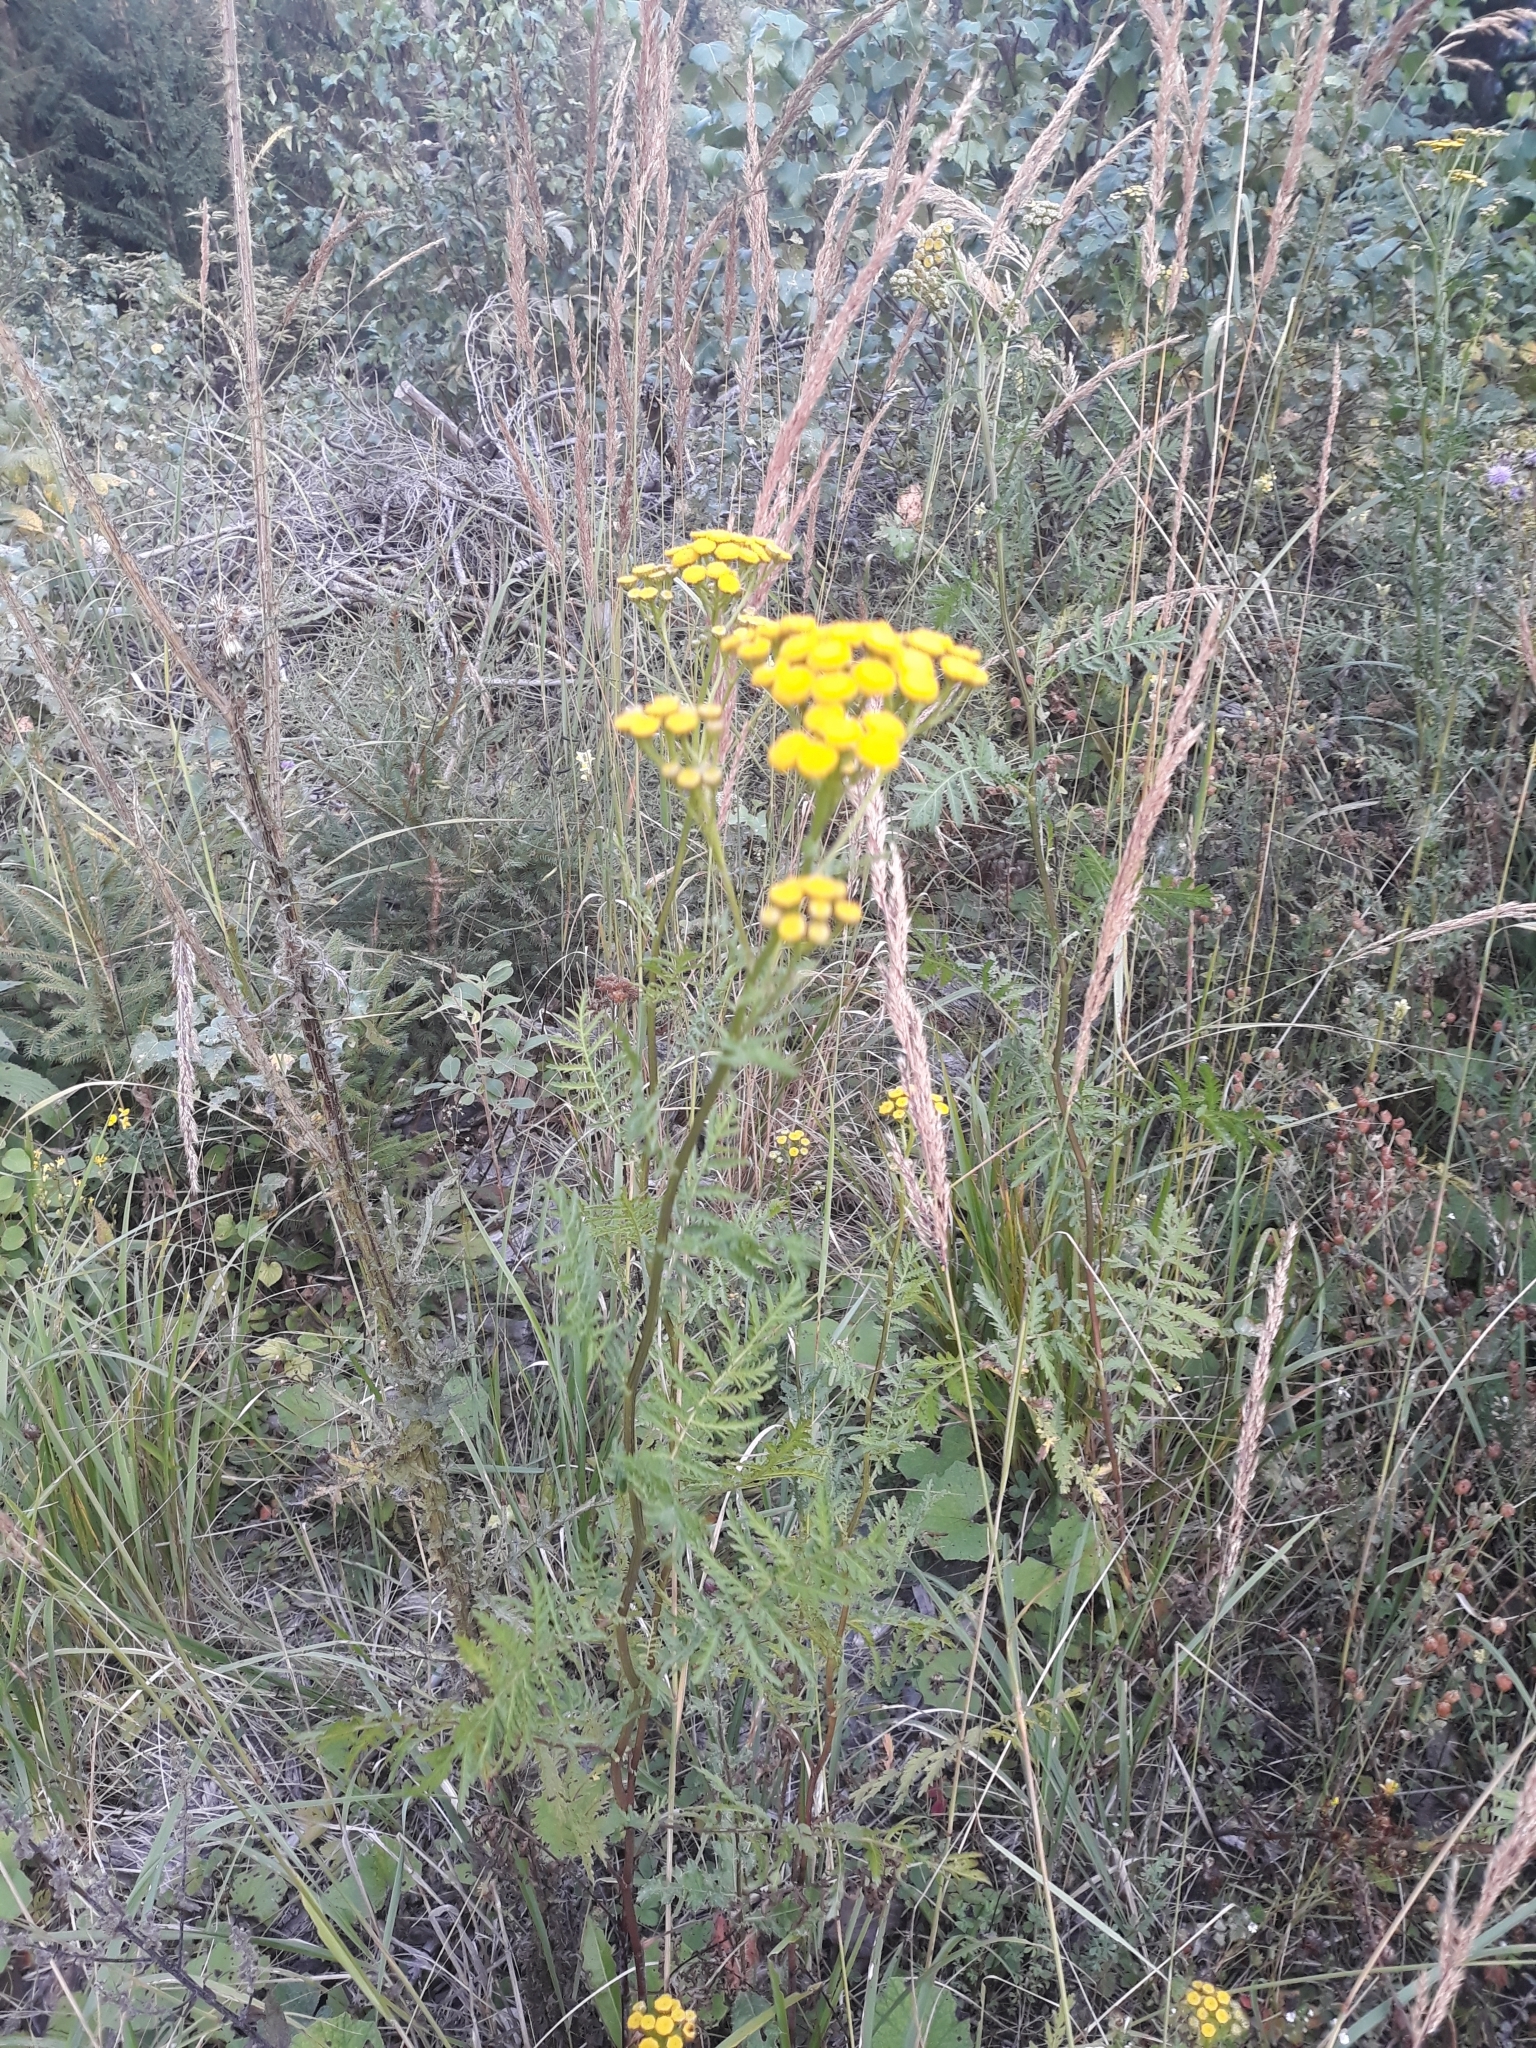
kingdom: Plantae
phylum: Tracheophyta
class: Magnoliopsida
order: Asterales
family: Asteraceae
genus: Tanacetum
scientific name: Tanacetum vulgare
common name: Common tansy
